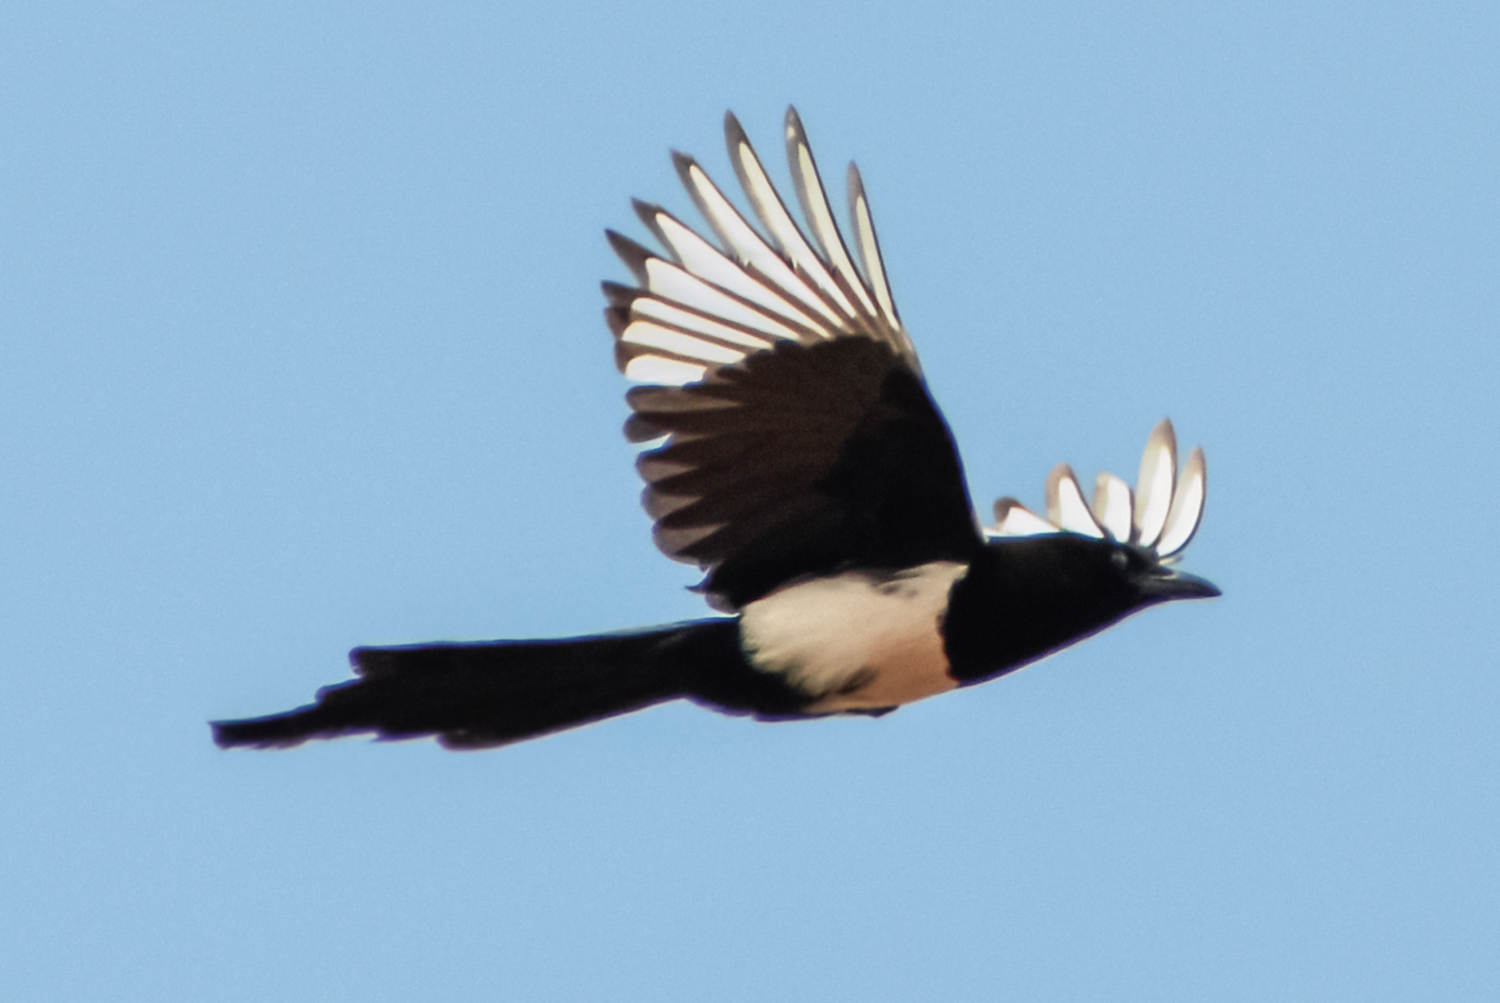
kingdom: Animalia
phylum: Chordata
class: Aves
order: Passeriformes
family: Corvidae
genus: Pica
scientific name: Pica pica
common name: Eurasian magpie
